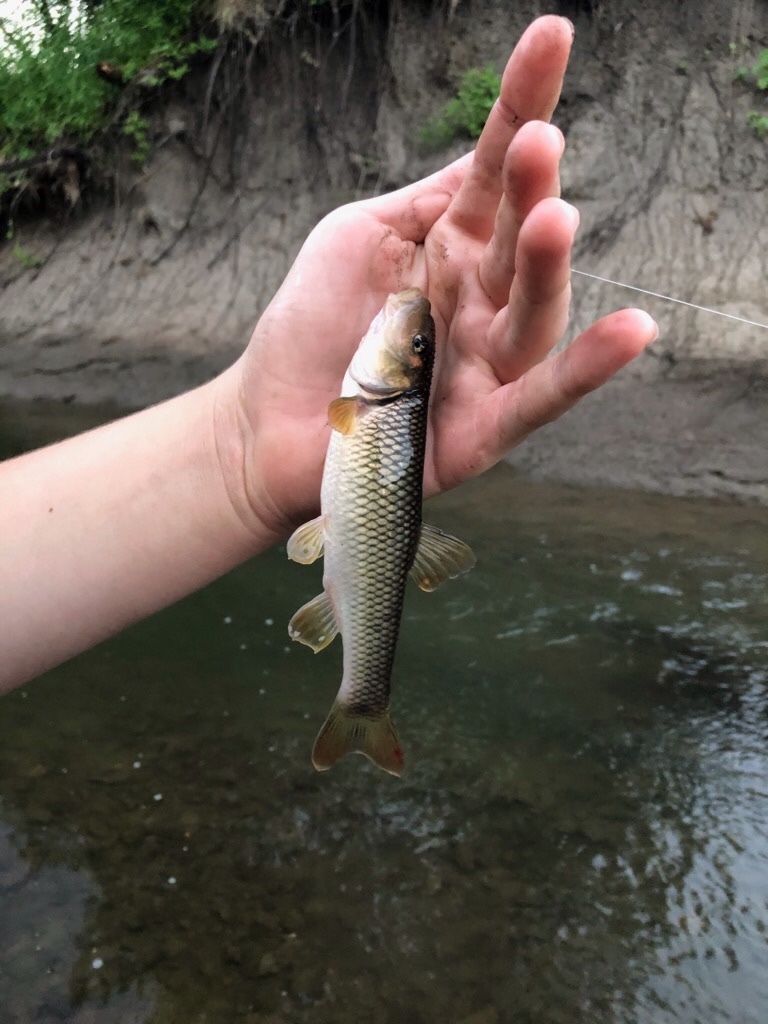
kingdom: Animalia
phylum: Chordata
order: Cypriniformes
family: Cyprinidae
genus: Nocomis
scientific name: Nocomis biguttatus
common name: Hornyhead chub
